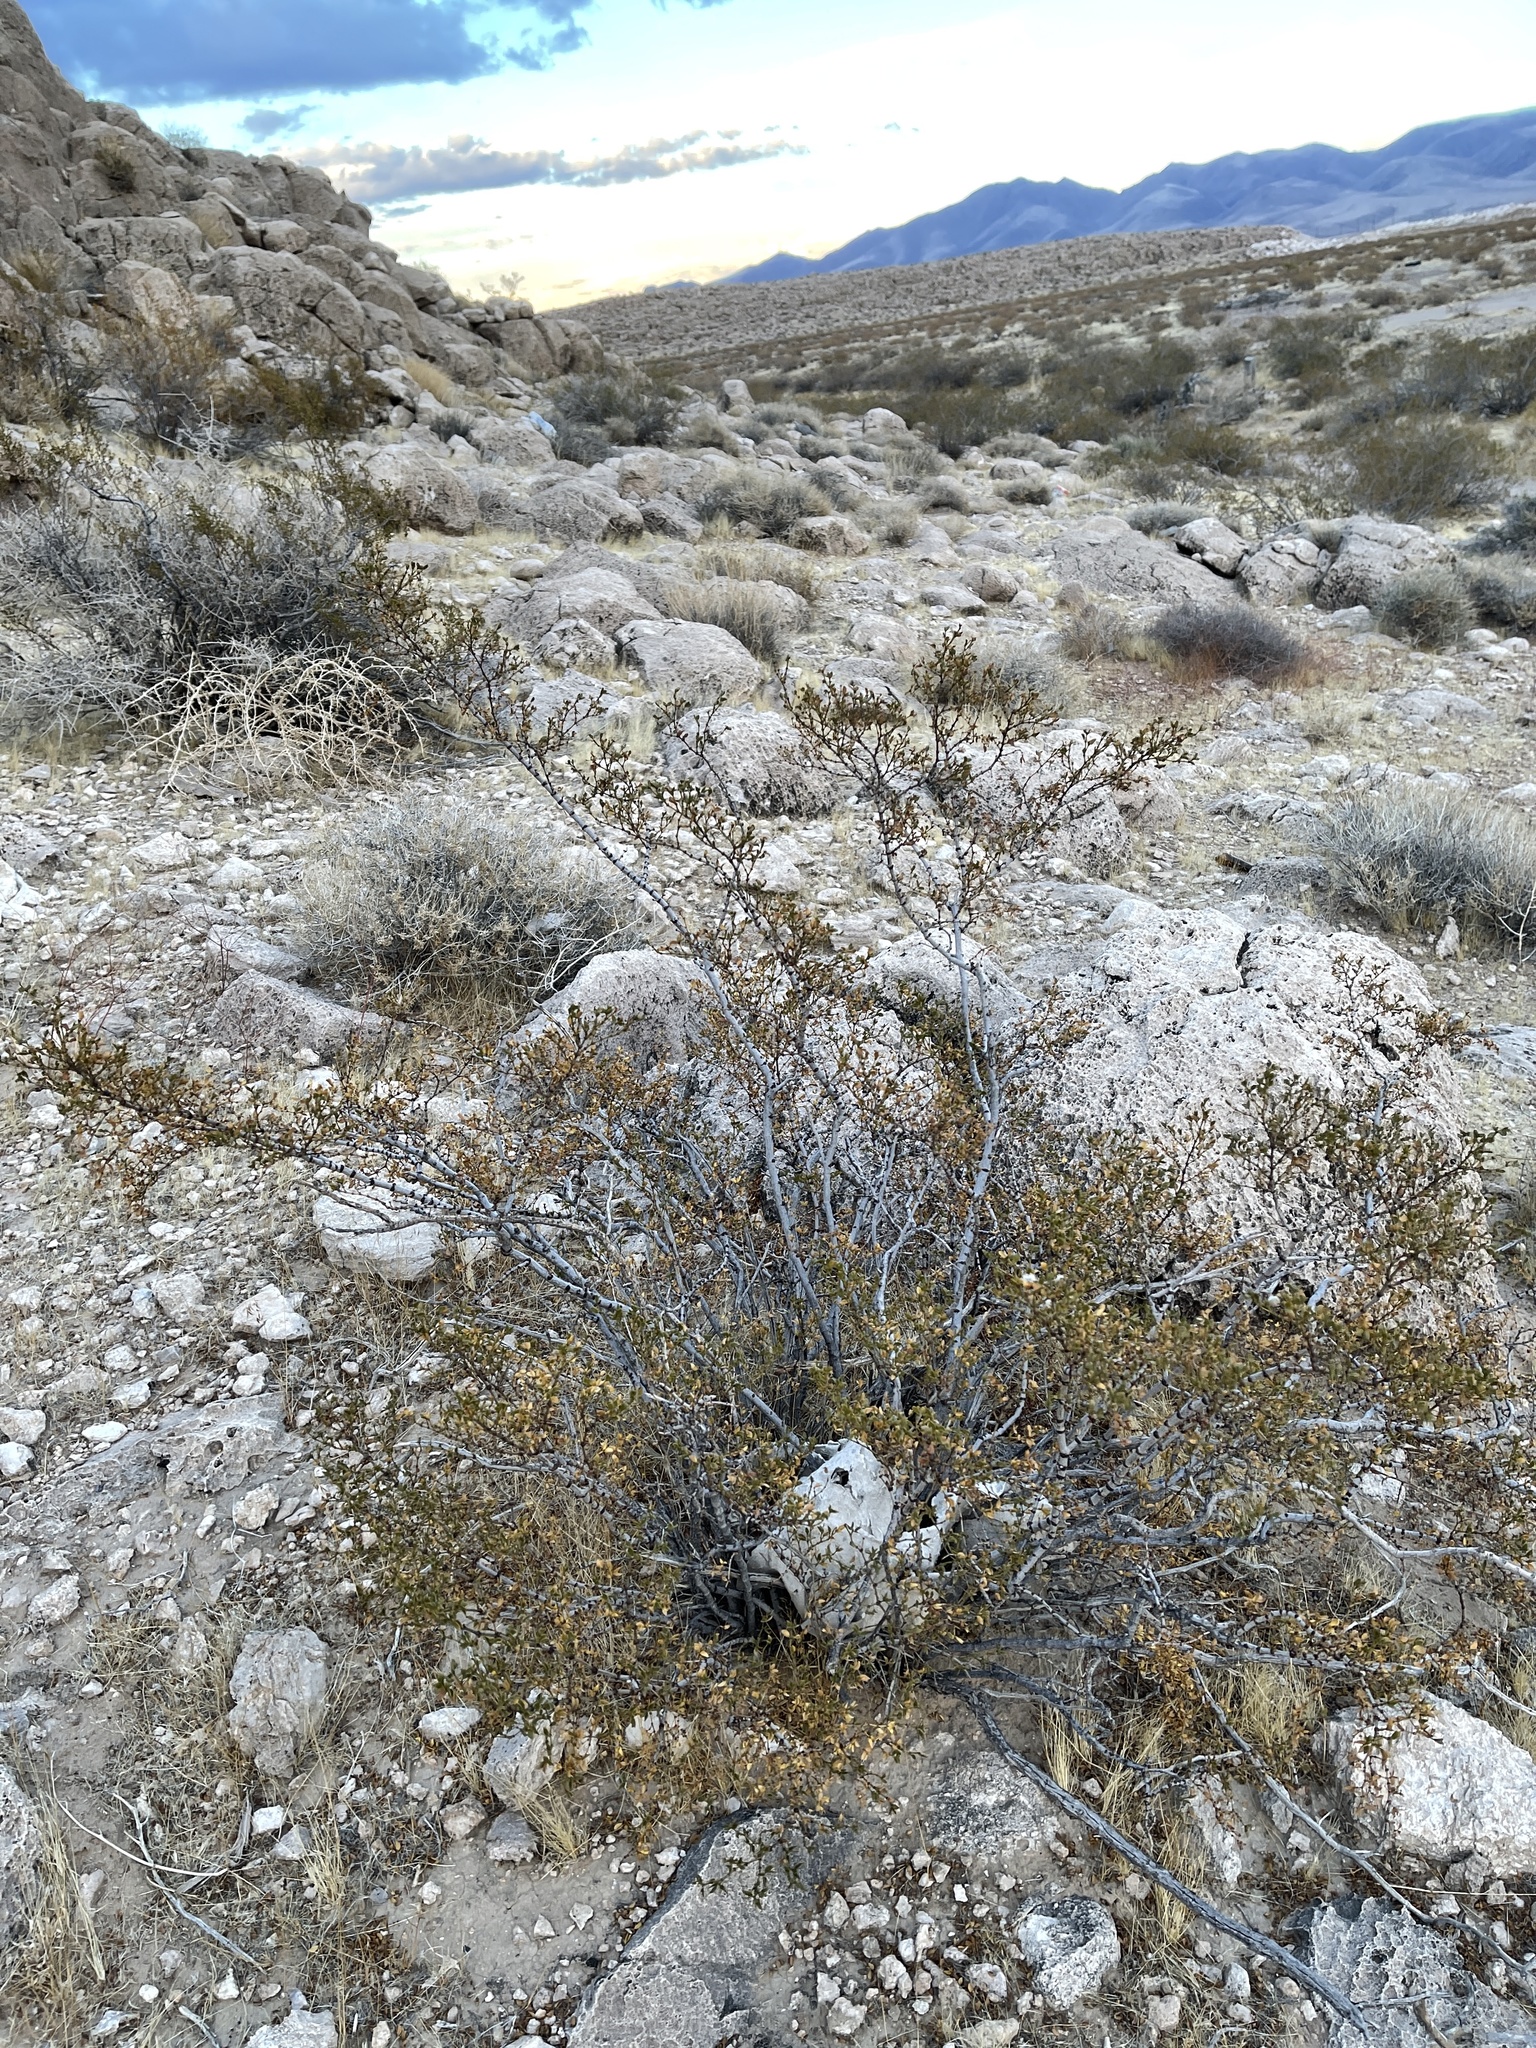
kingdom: Plantae
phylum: Tracheophyta
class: Magnoliopsida
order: Zygophyllales
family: Zygophyllaceae
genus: Larrea
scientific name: Larrea tridentata
